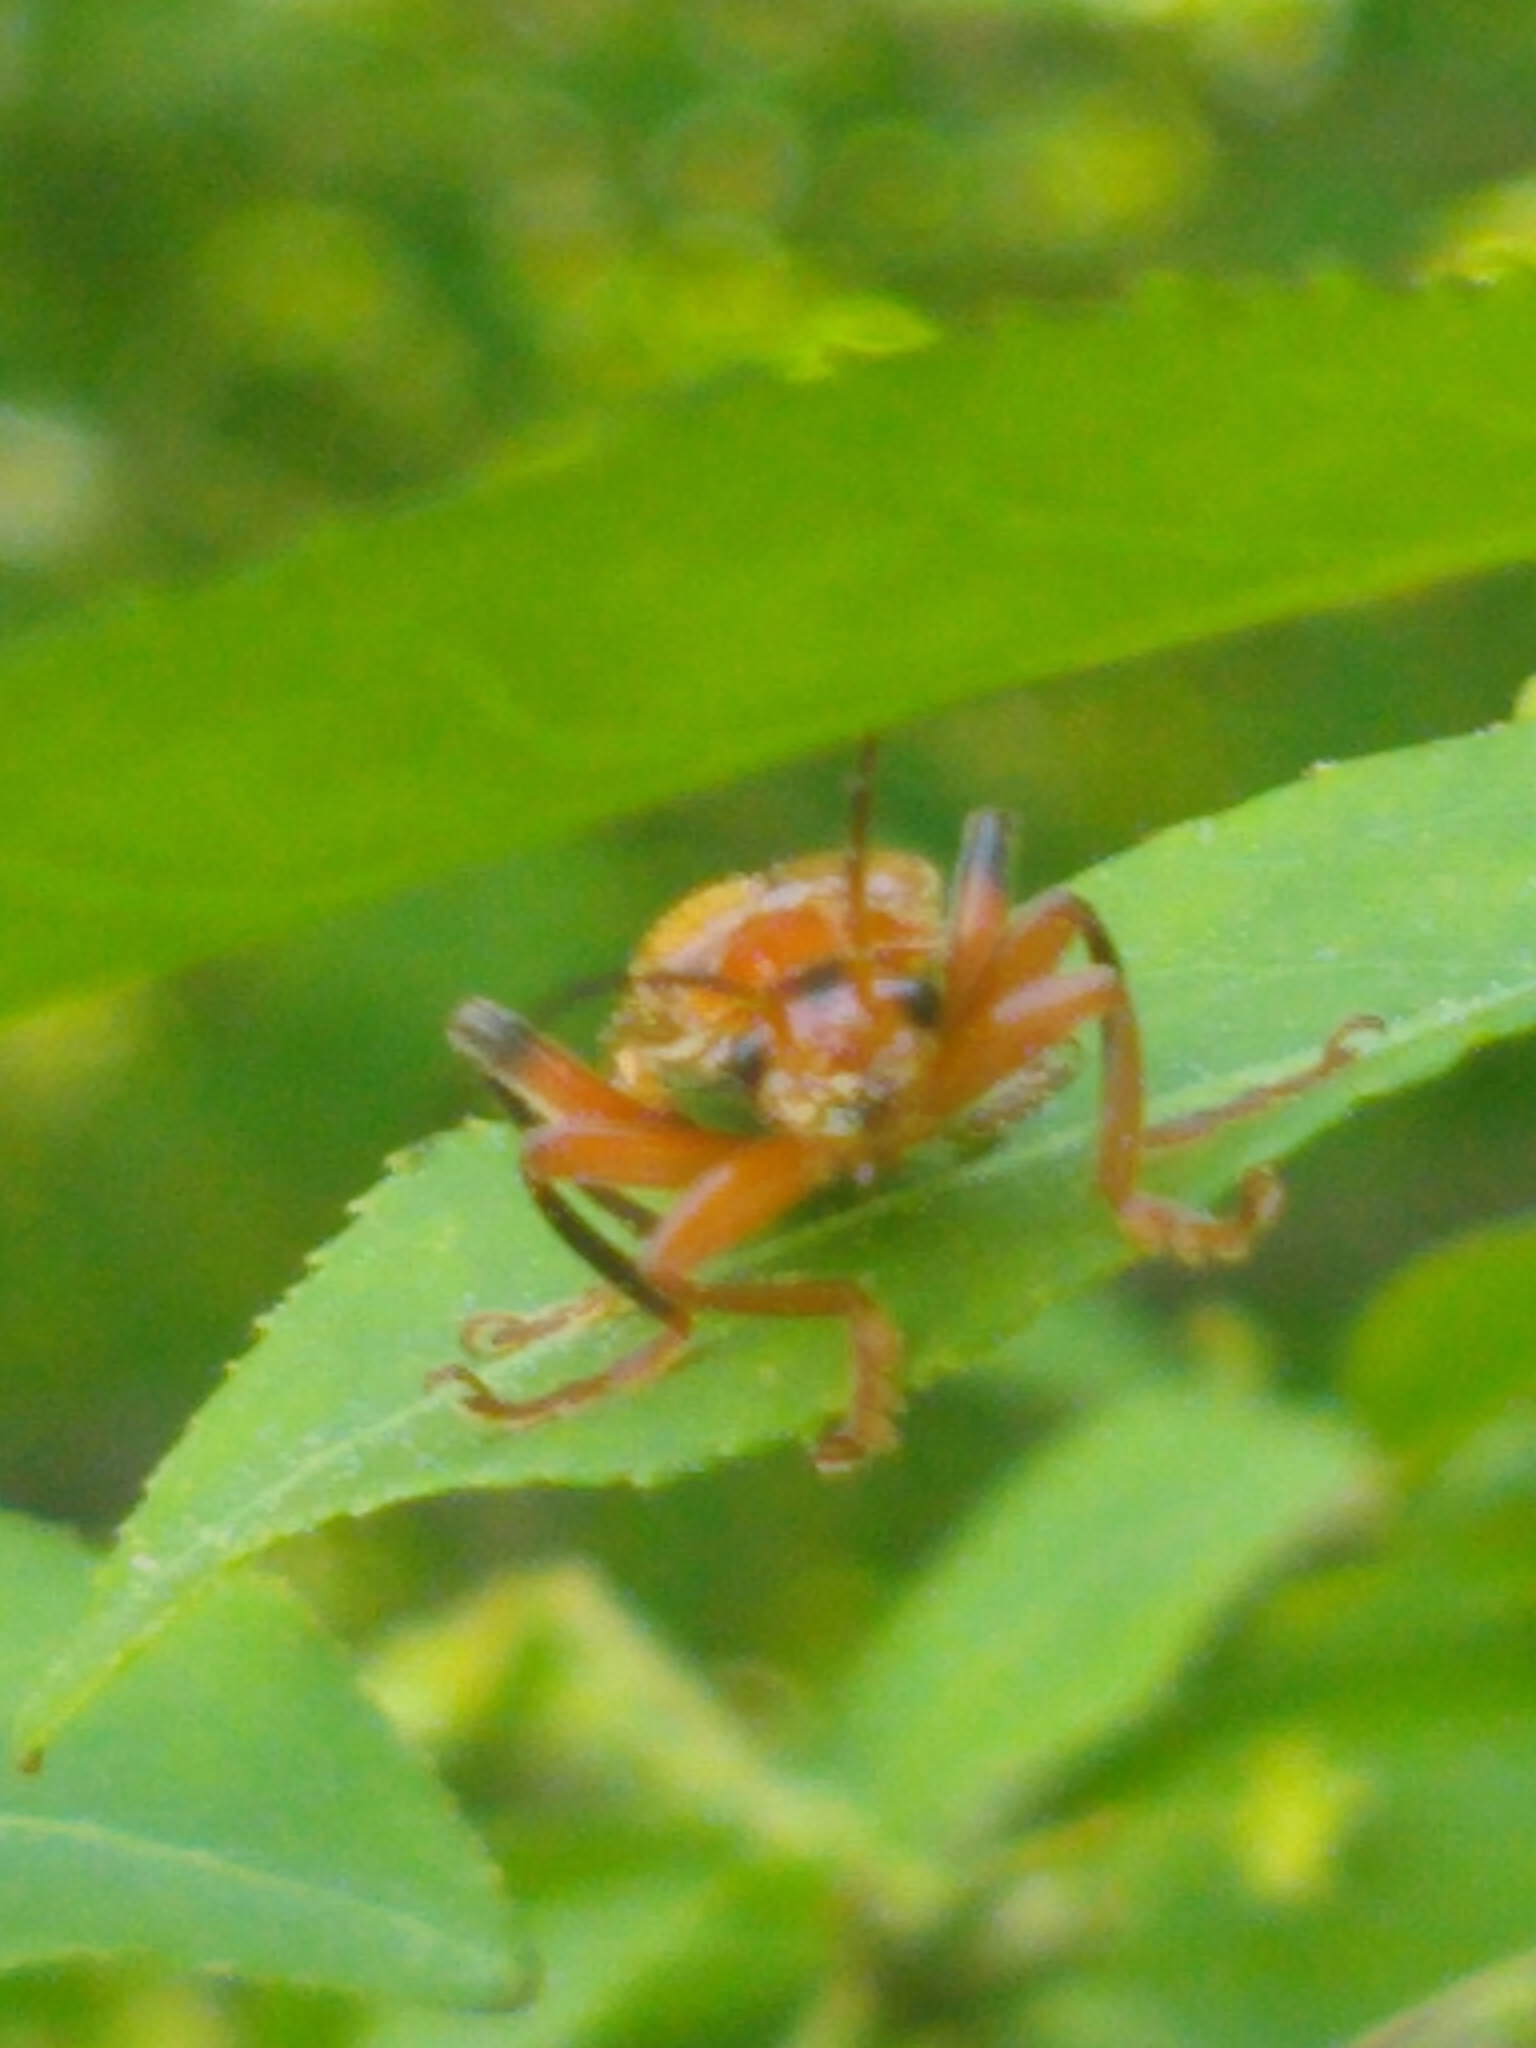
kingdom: Animalia
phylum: Arthropoda
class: Insecta
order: Coleoptera
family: Cantharidae
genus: Cantharis
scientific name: Cantharis livida
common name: Livid soldier beetle
